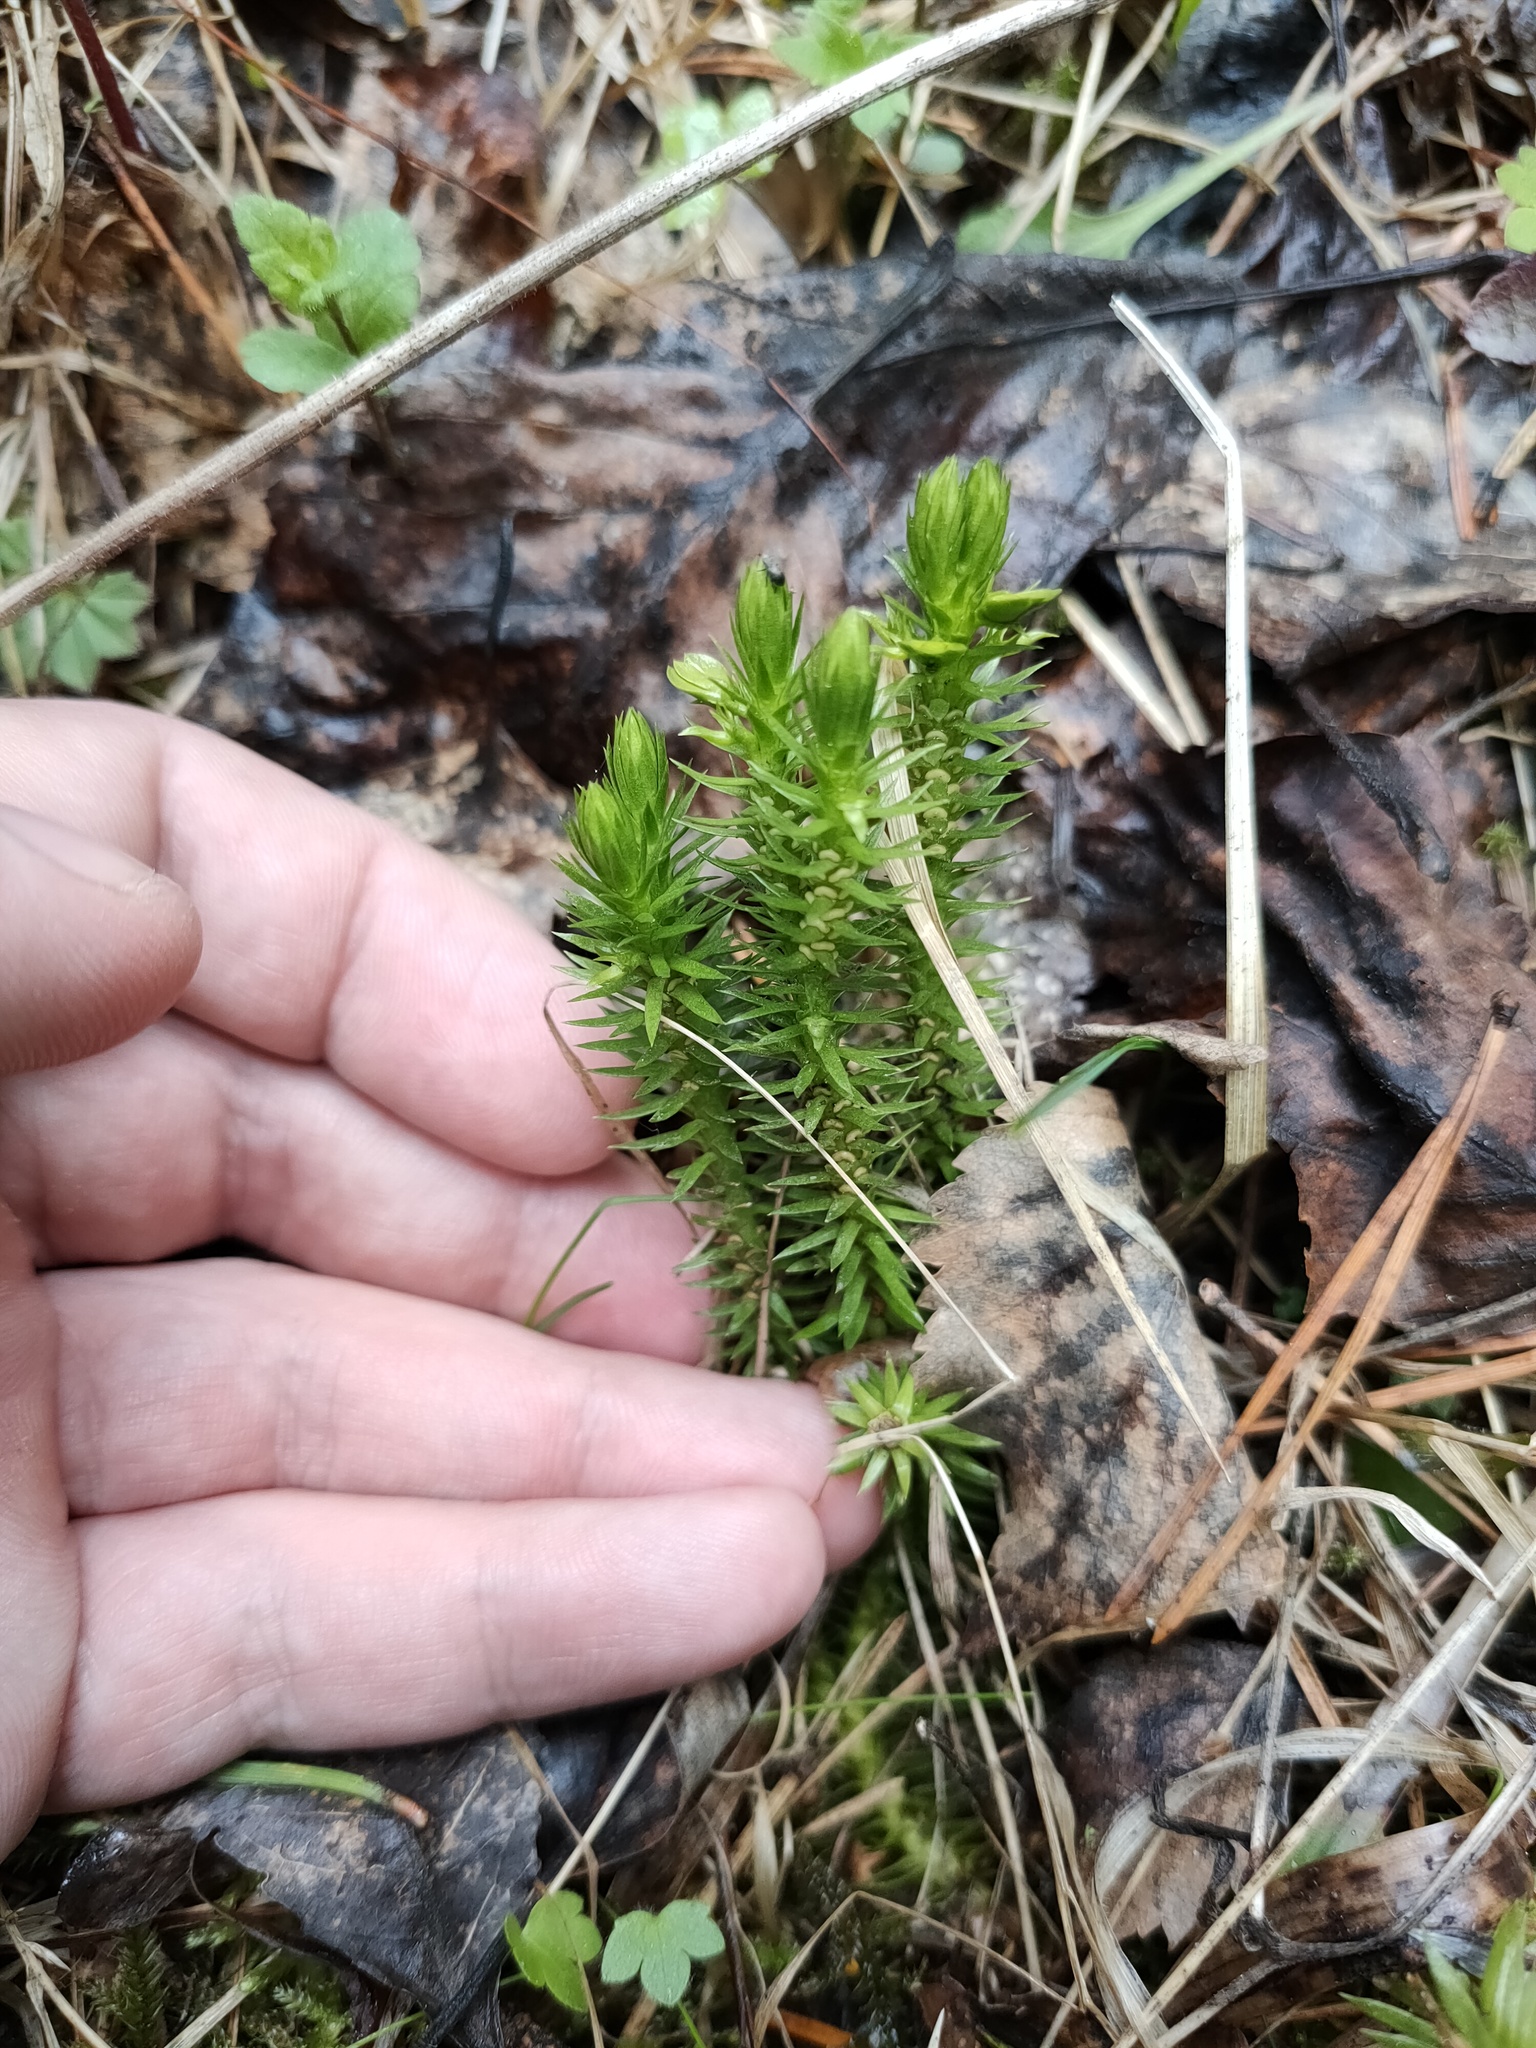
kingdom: Plantae
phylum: Tracheophyta
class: Lycopodiopsida
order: Lycopodiales
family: Lycopodiaceae
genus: Huperzia
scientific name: Huperzia selago
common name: Northern firmoss
